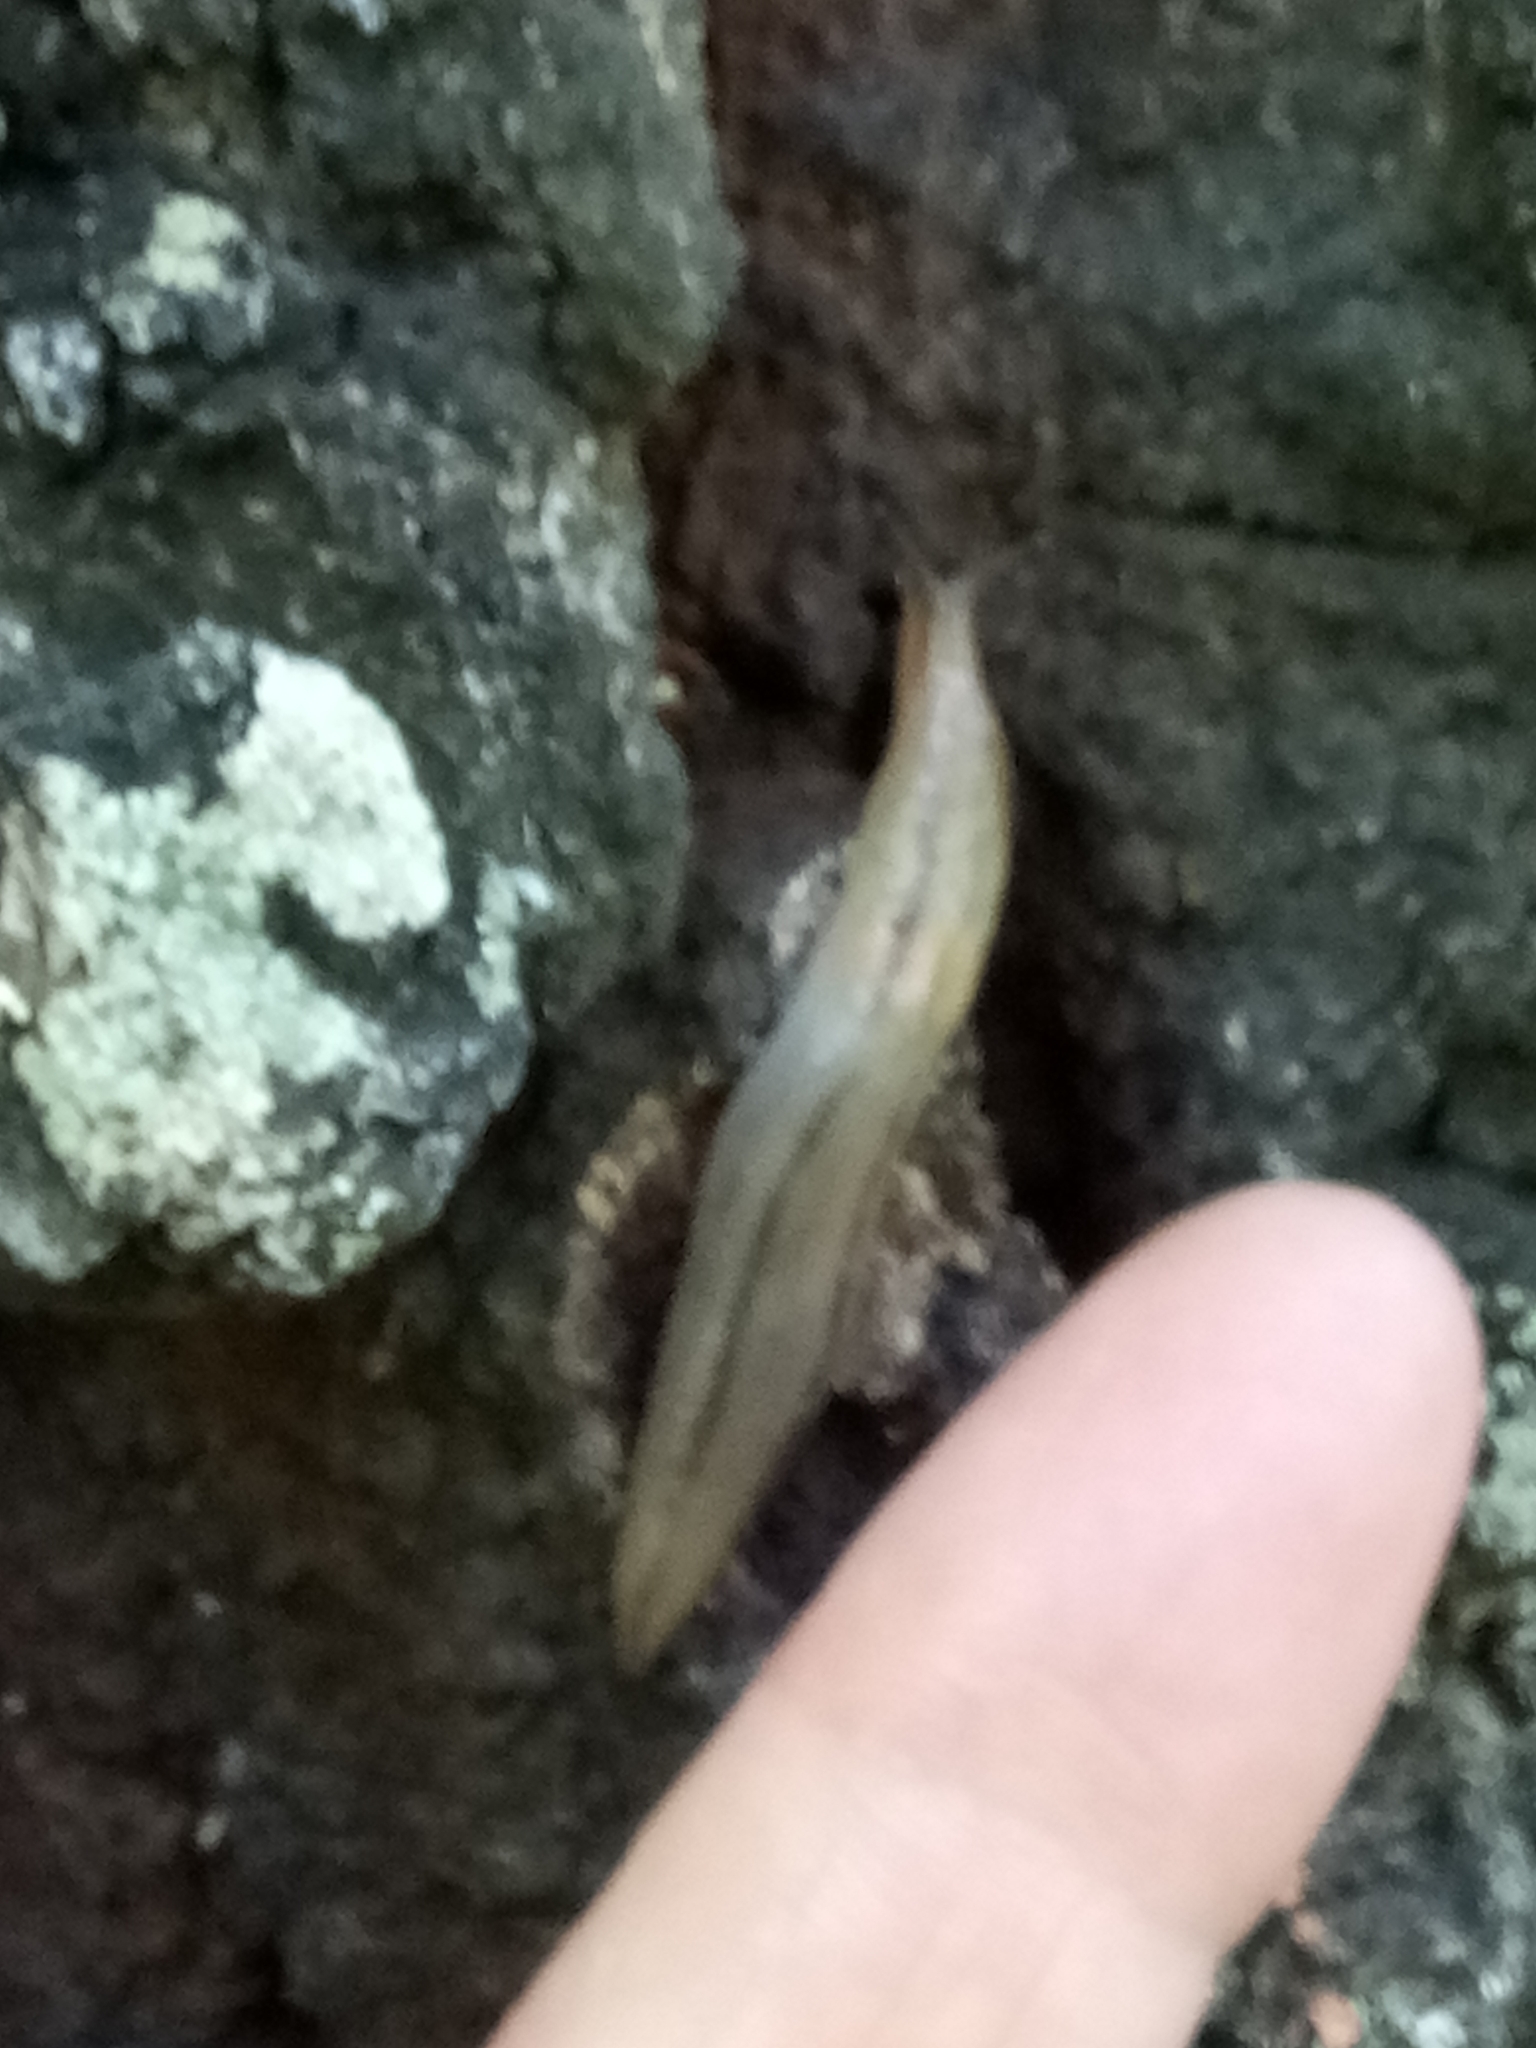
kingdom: Animalia
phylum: Mollusca
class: Gastropoda
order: Stylommatophora
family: Limacidae
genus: Ambigolimax
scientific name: Ambigolimax
